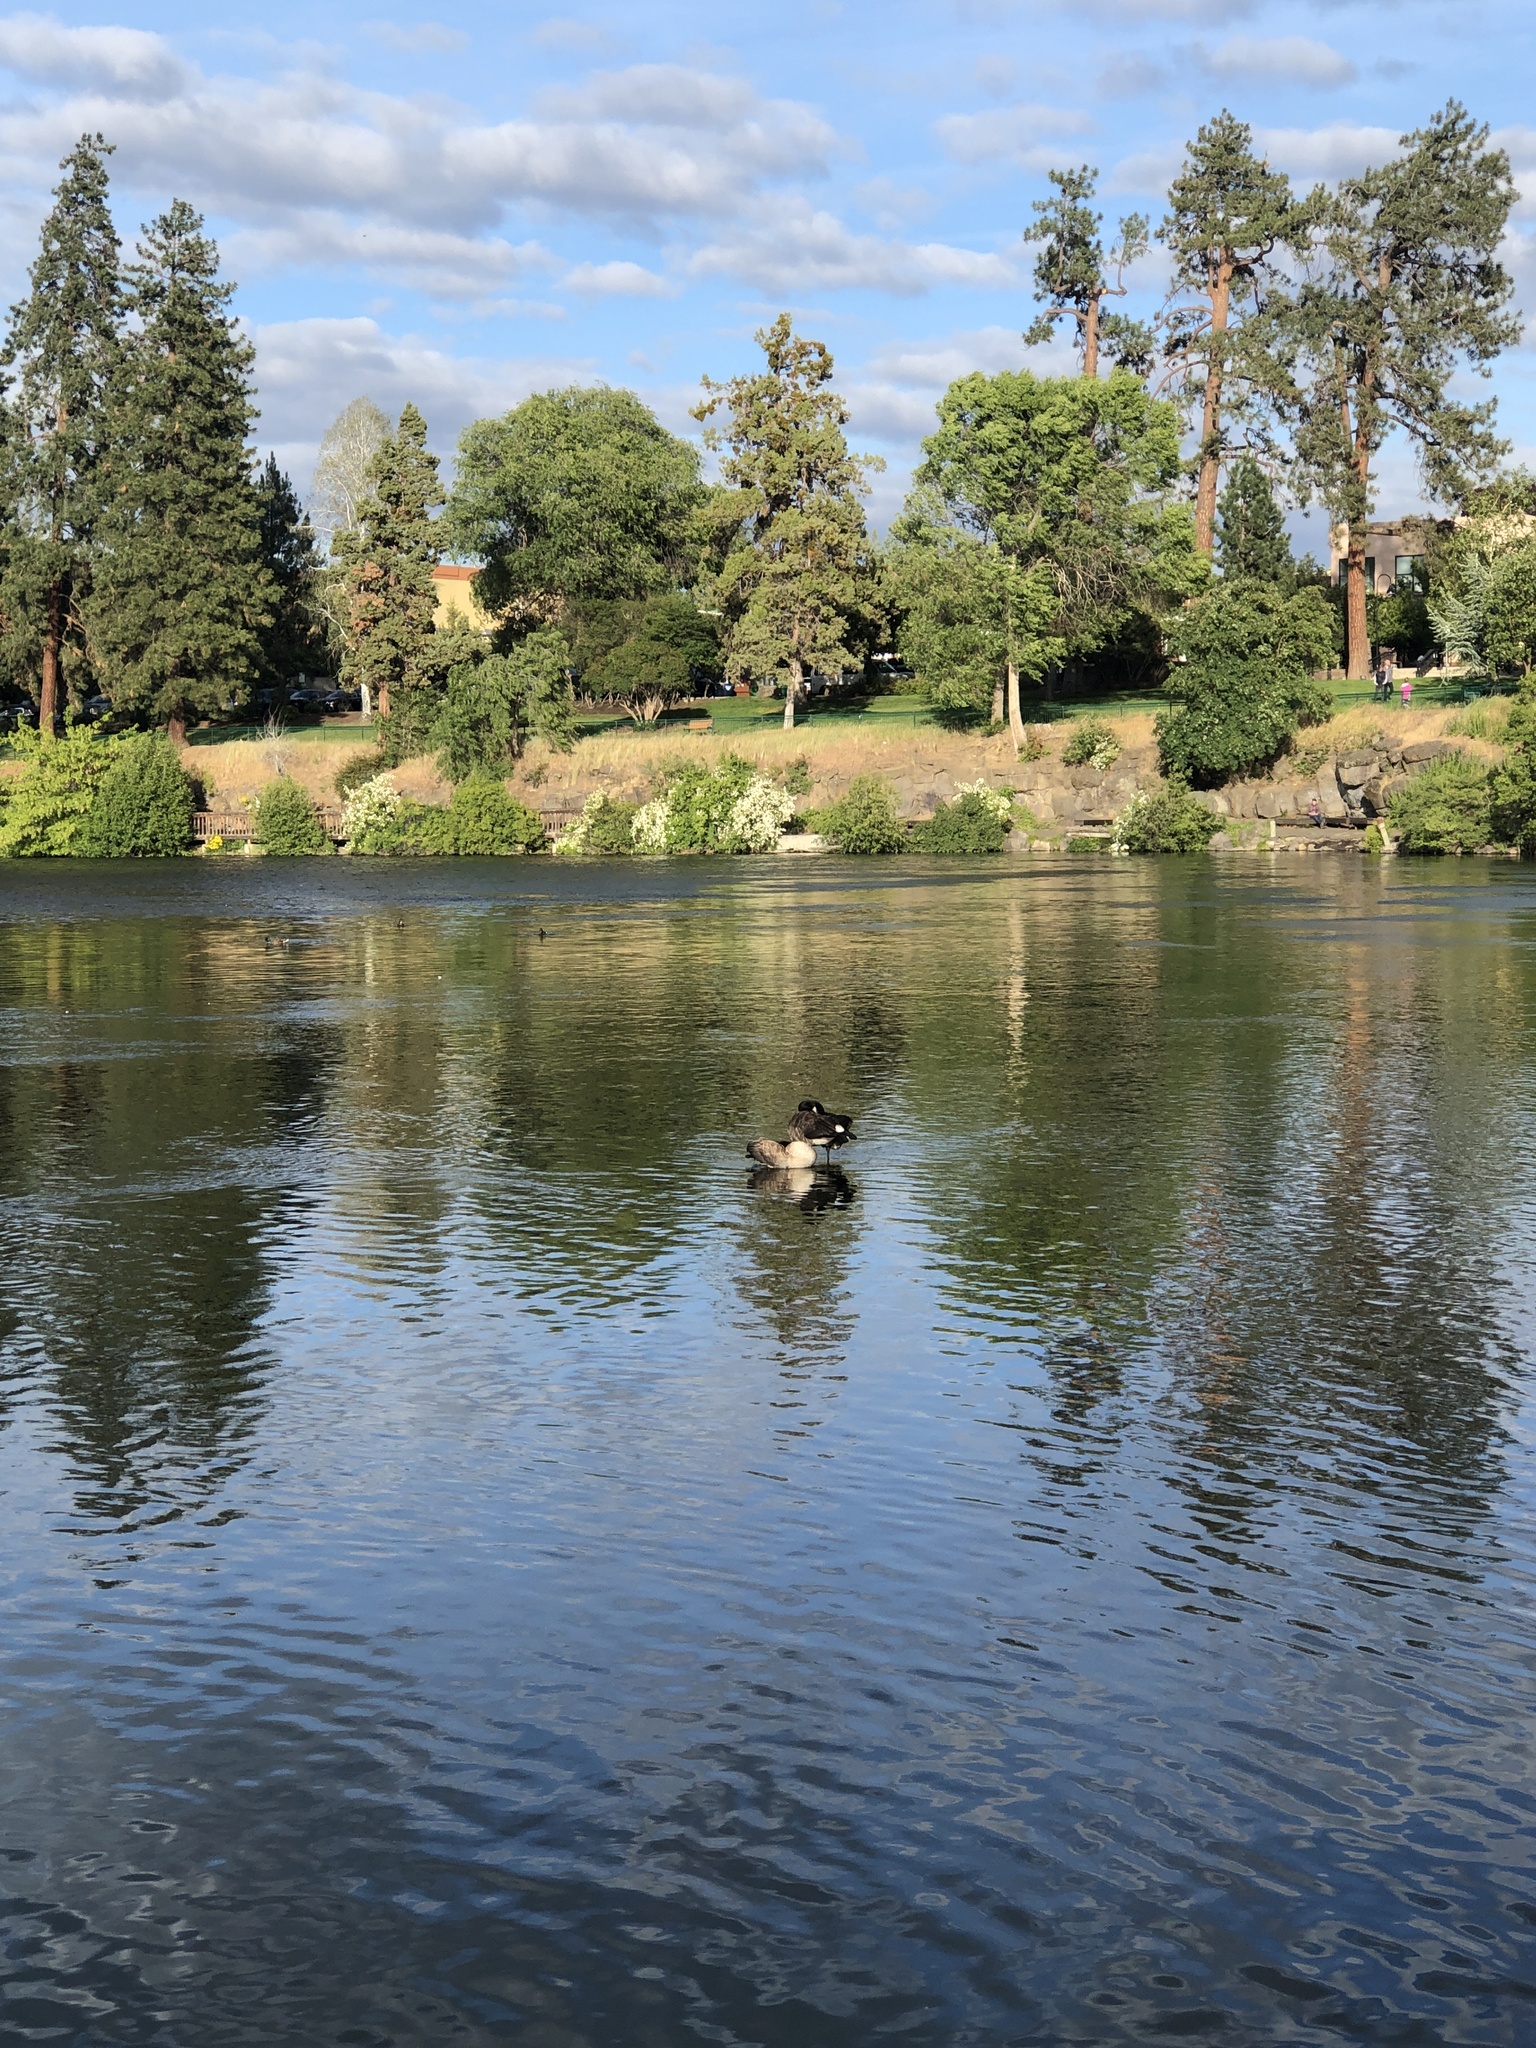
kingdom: Animalia
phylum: Chordata
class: Aves
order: Anseriformes
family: Anatidae
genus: Branta
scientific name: Branta canadensis
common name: Canada goose
